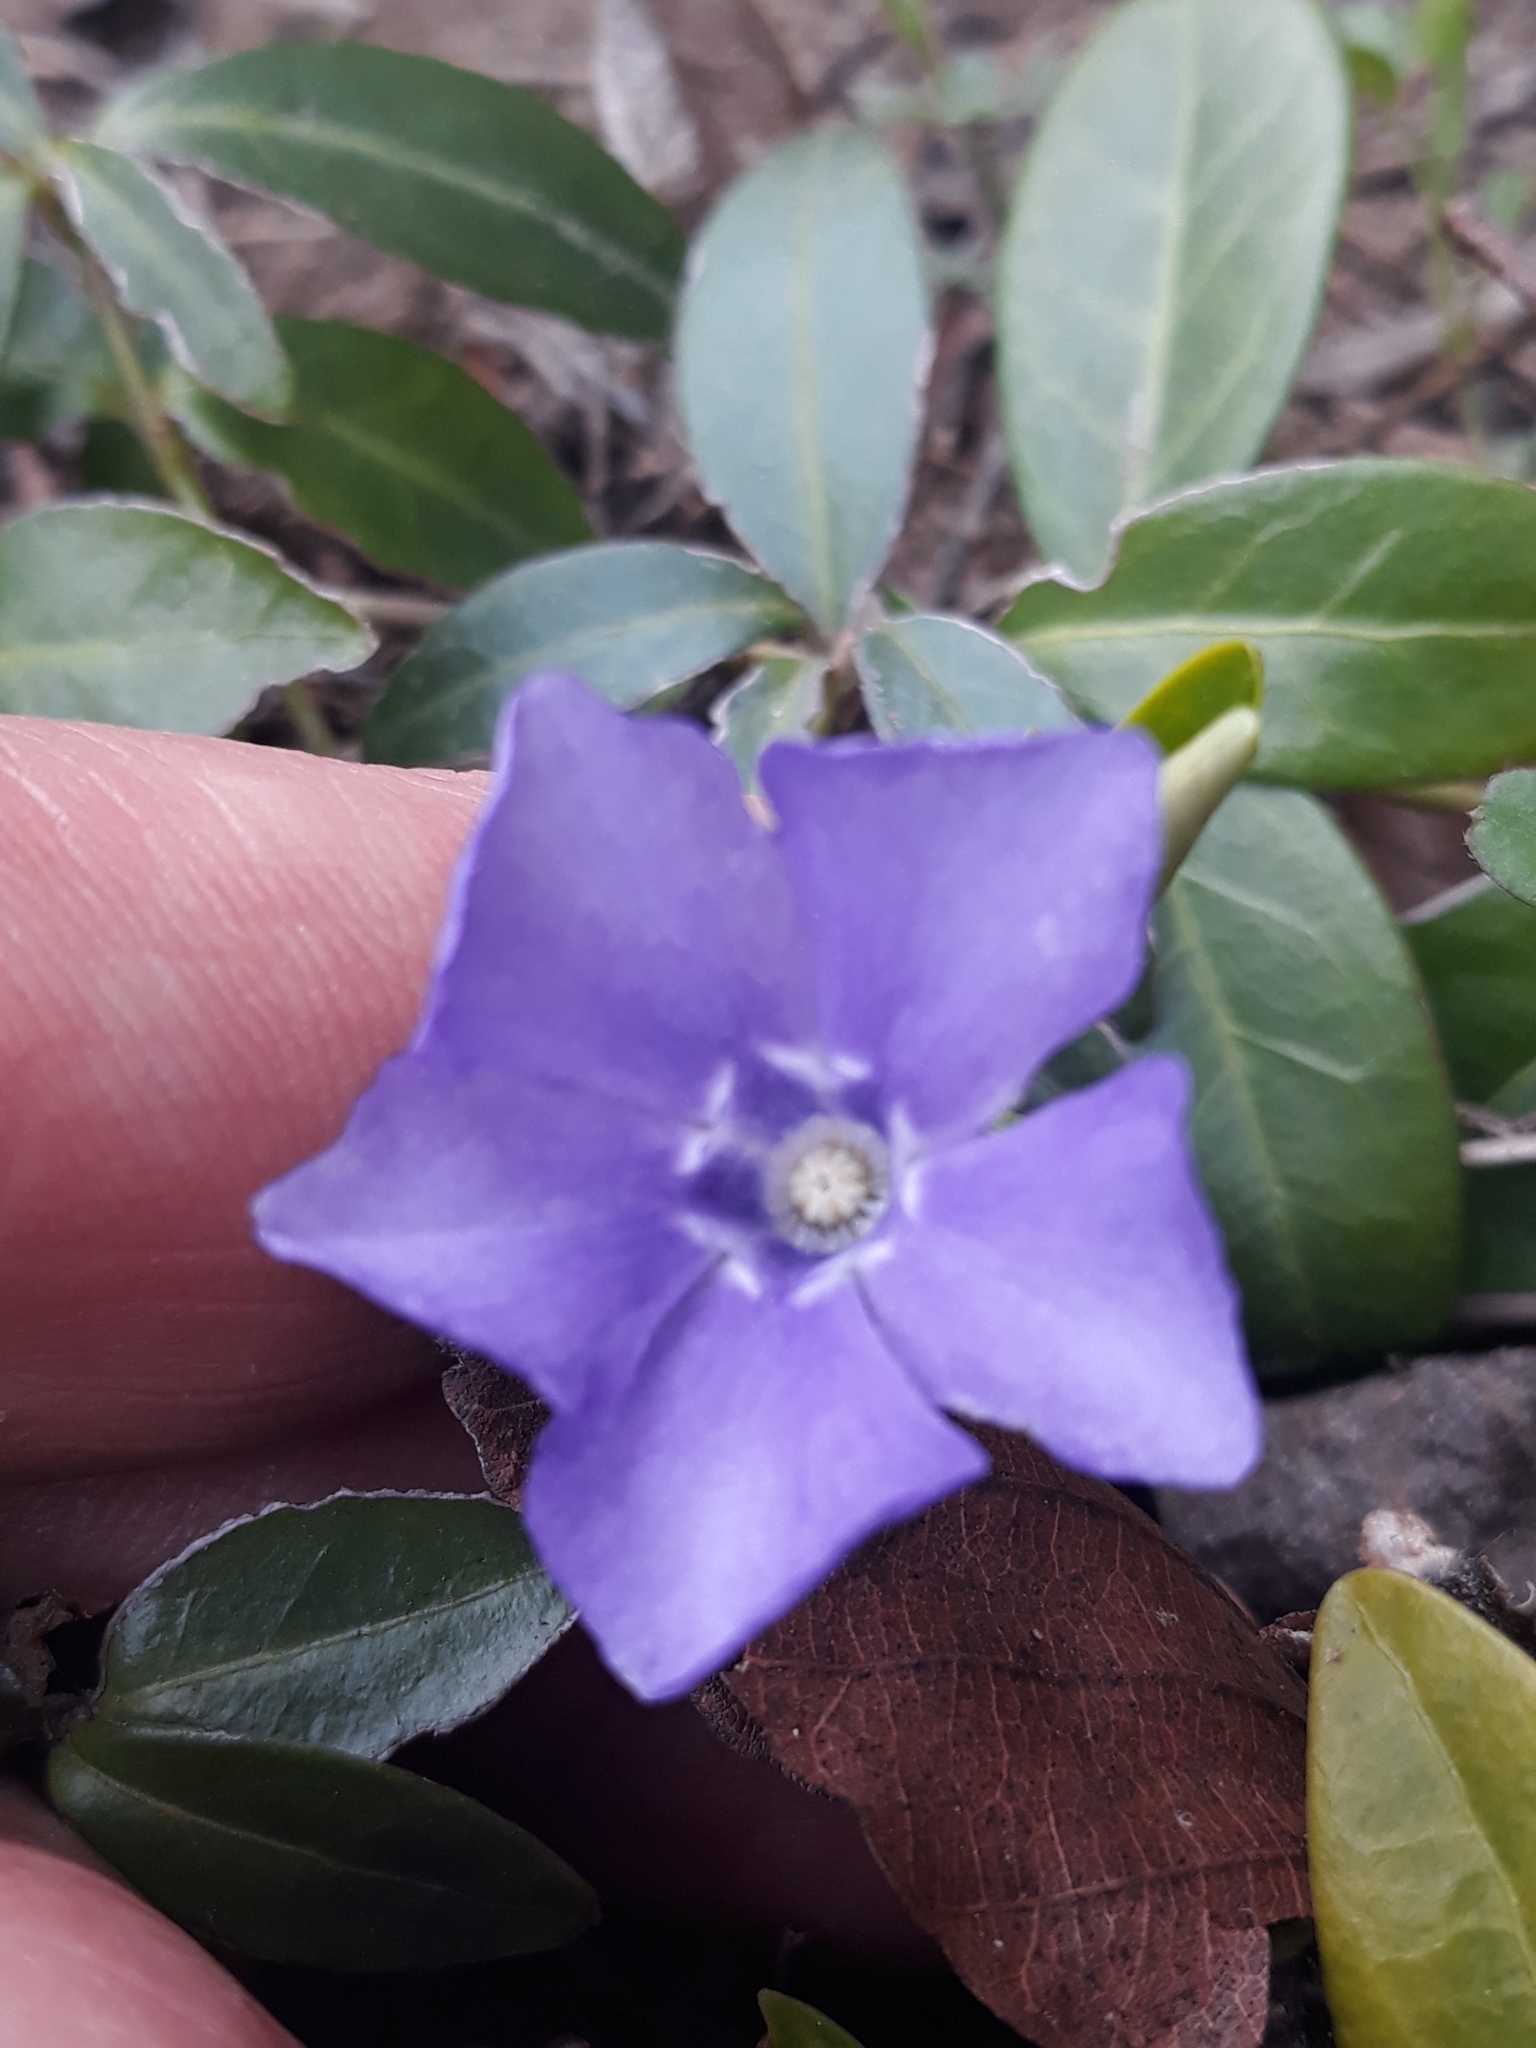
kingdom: Plantae
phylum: Tracheophyta
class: Magnoliopsida
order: Gentianales
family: Apocynaceae
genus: Vinca
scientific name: Vinca minor
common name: Lesser periwinkle
